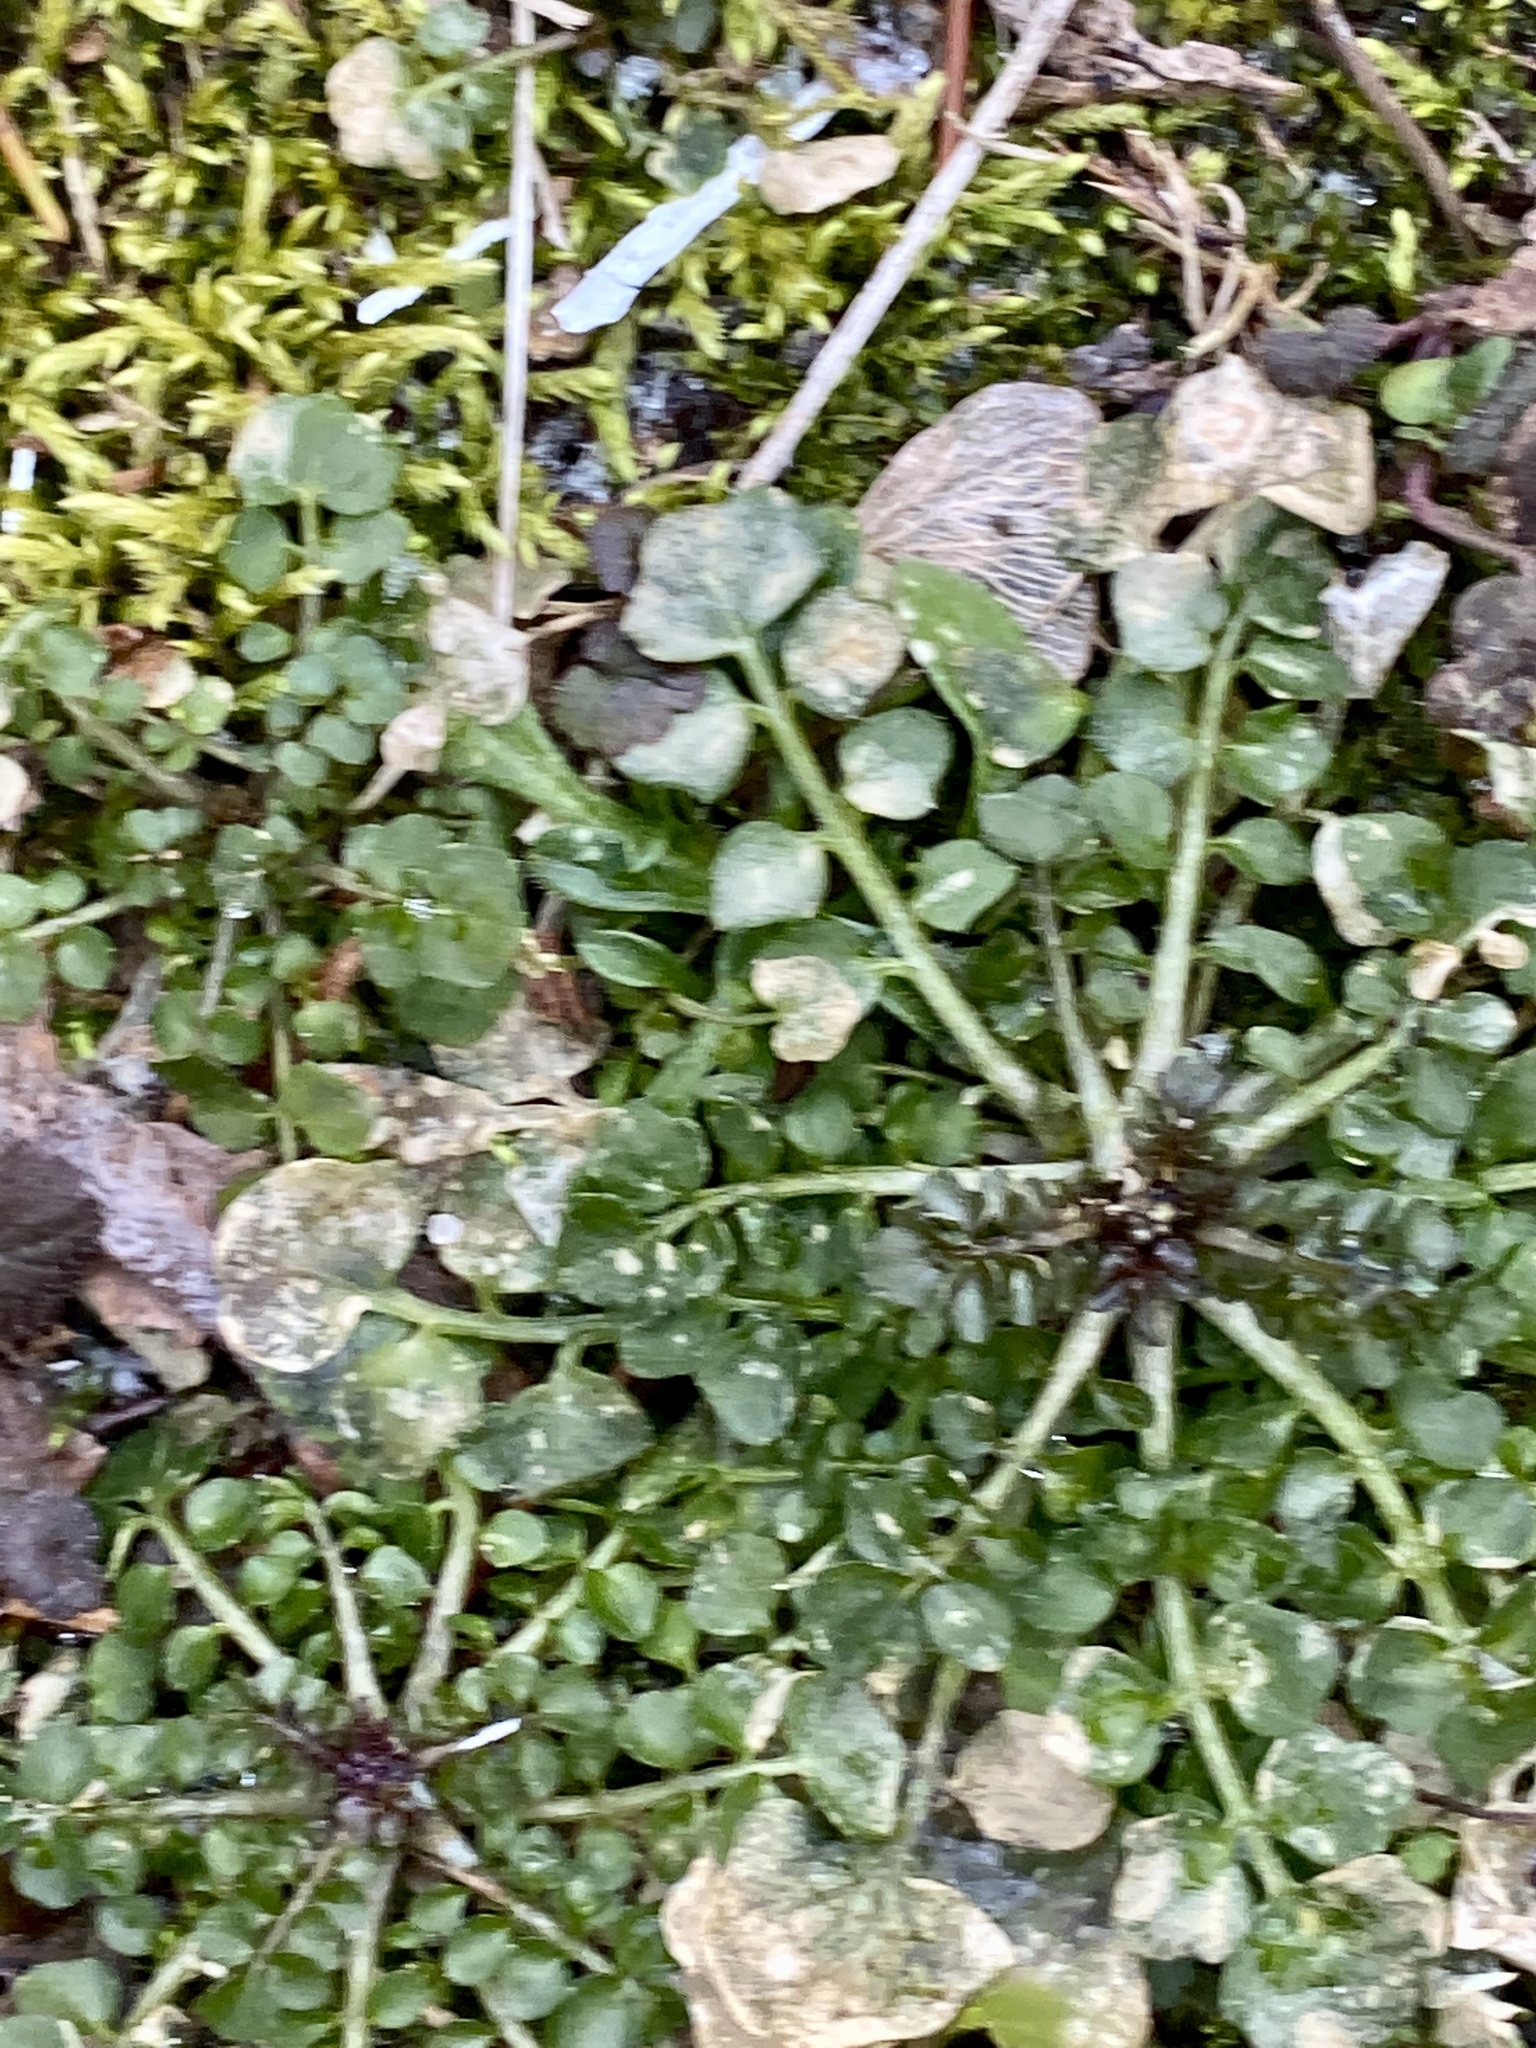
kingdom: Plantae
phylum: Tracheophyta
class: Magnoliopsida
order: Brassicales
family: Brassicaceae
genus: Cardamine
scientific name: Cardamine hirsuta
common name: Hairy bittercress
